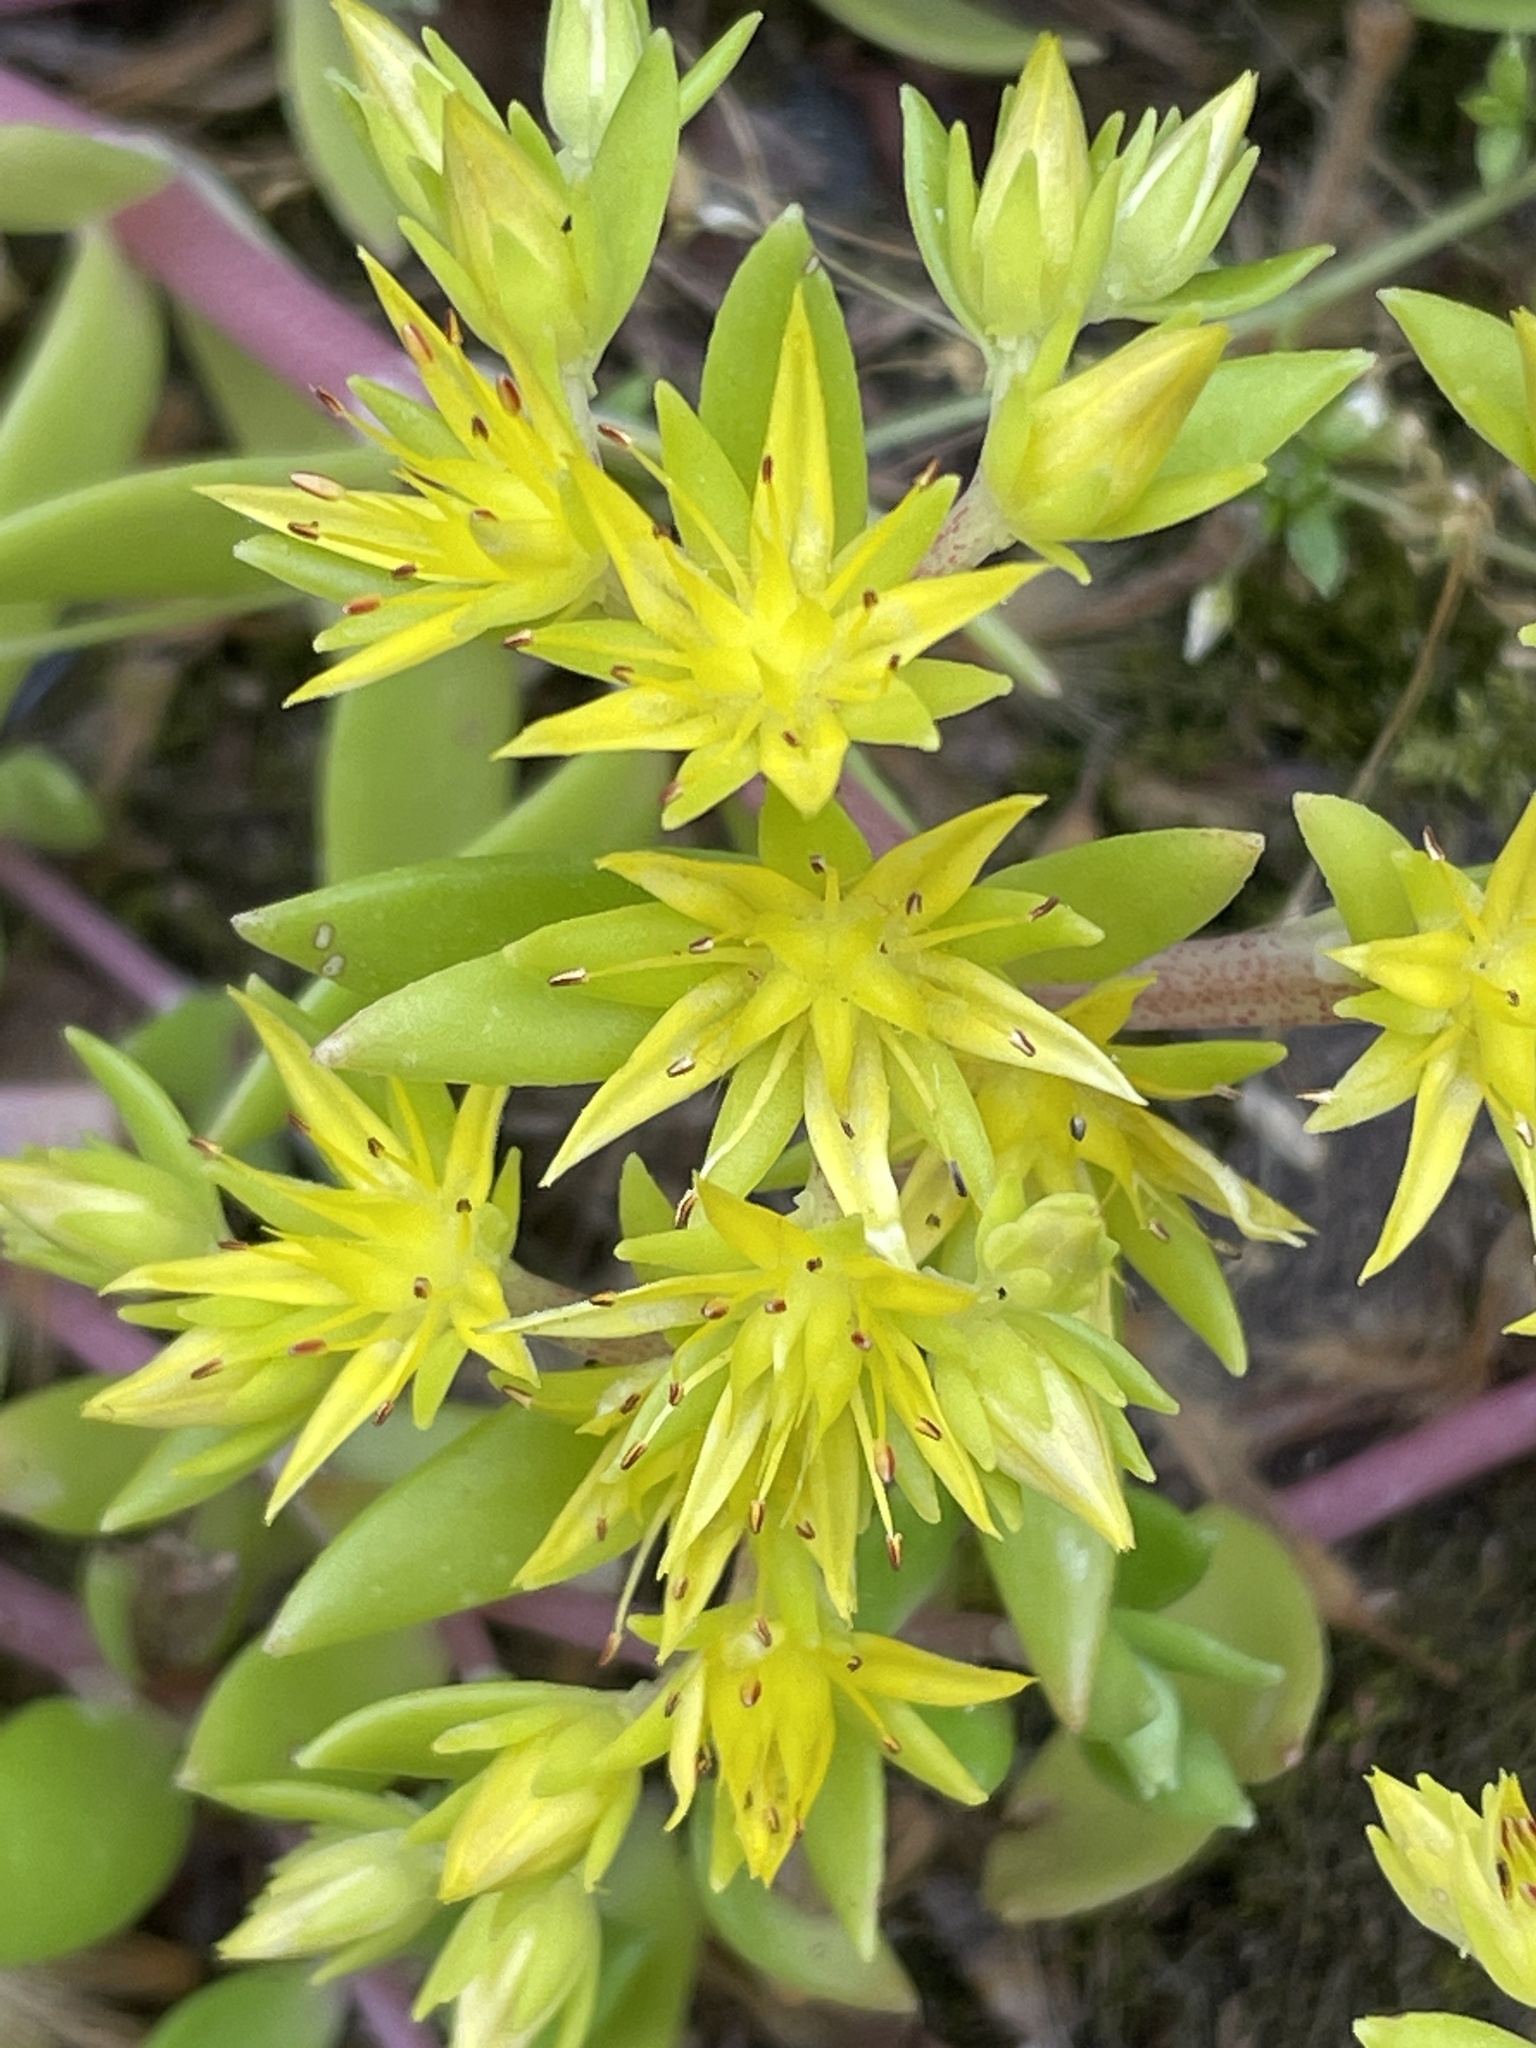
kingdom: Plantae
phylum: Tracheophyta
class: Magnoliopsida
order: Saxifragales
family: Crassulaceae
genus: Sedum
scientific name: Sedum sarmentosum
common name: Stringy stonecrop
